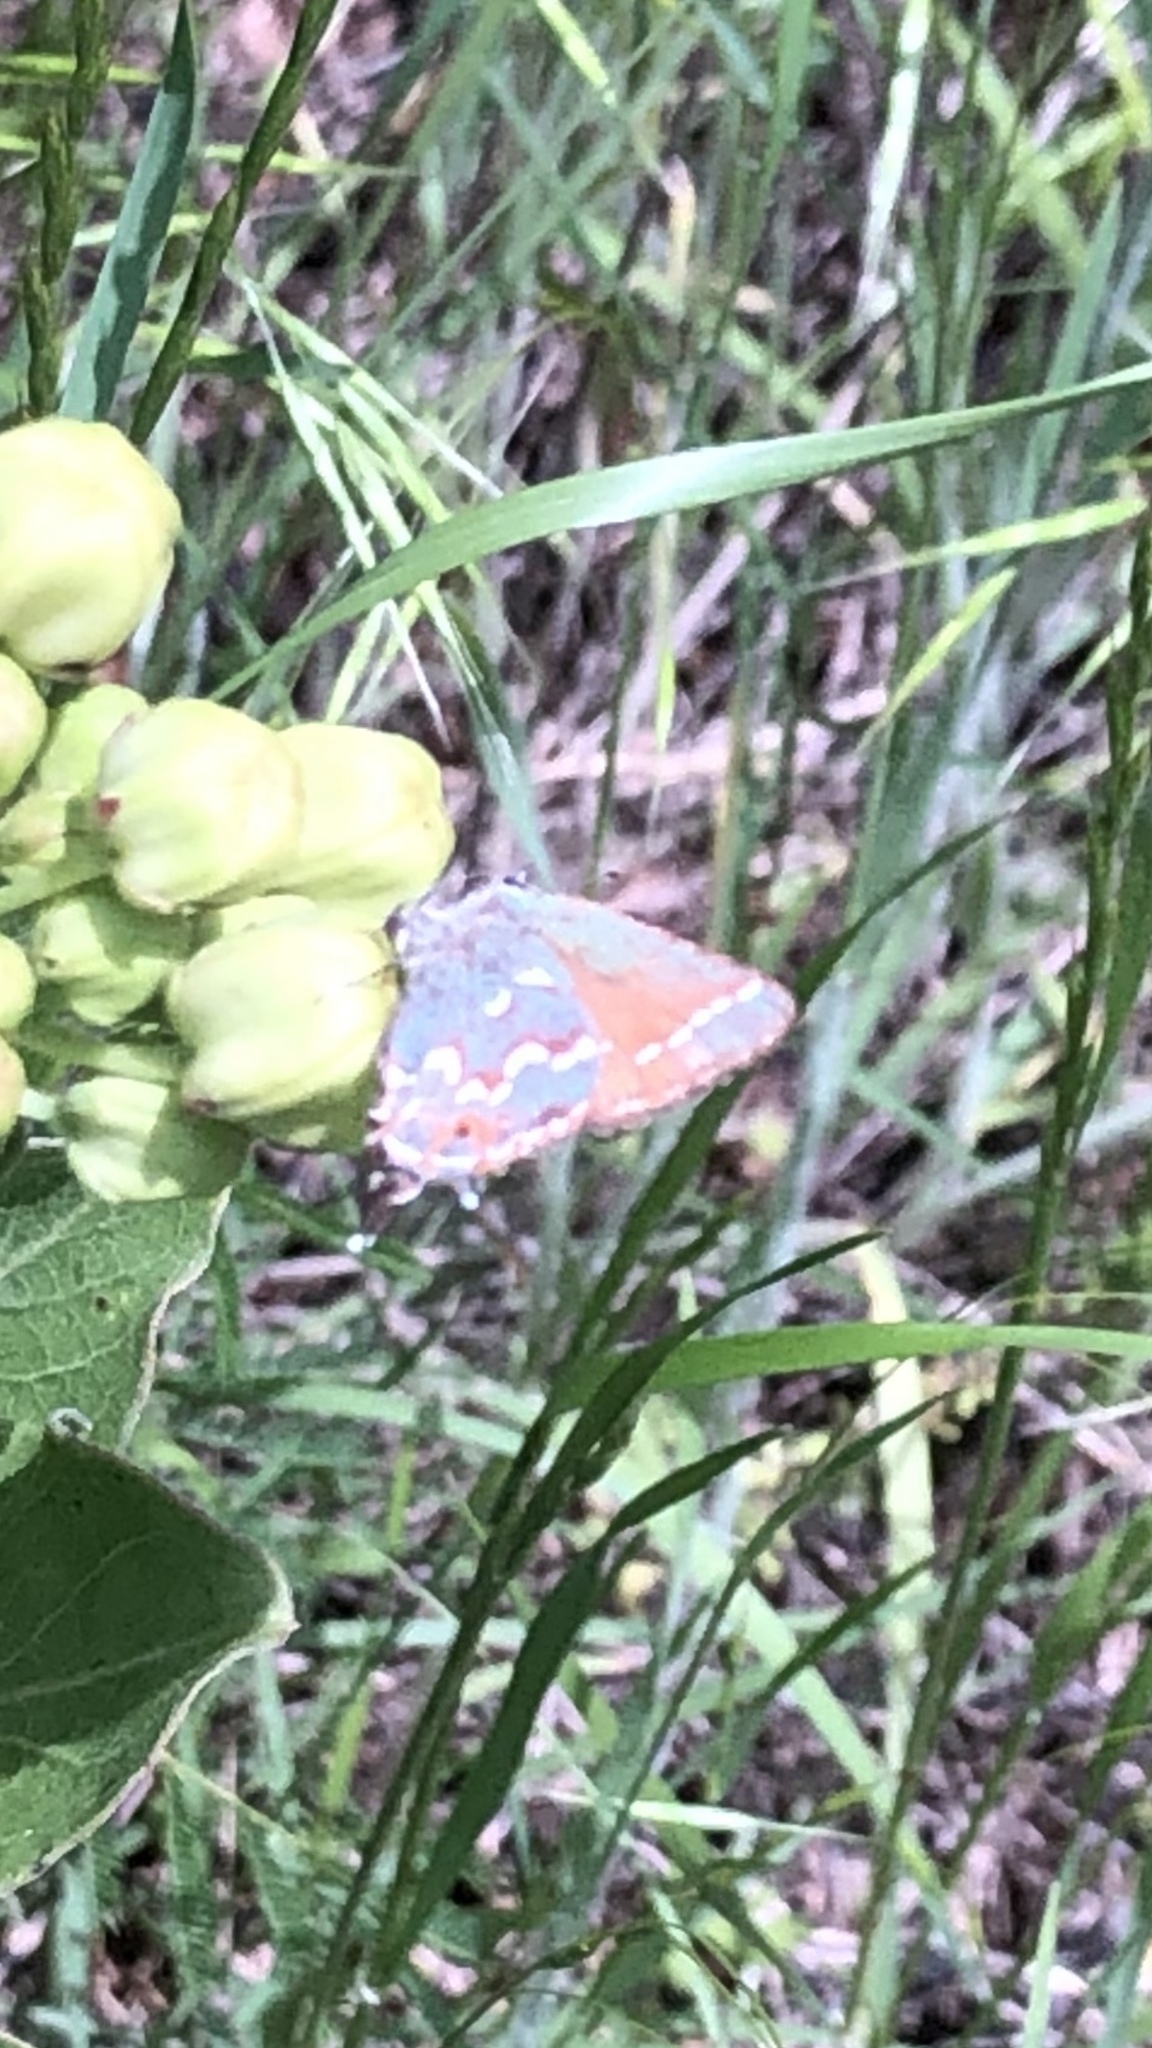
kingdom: Animalia
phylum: Arthropoda
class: Insecta
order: Lepidoptera
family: Lycaenidae
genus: Mitoura
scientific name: Mitoura gryneus
